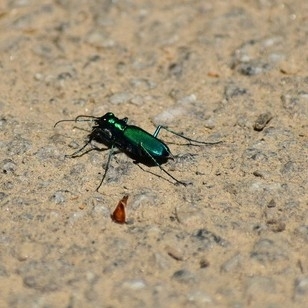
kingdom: Animalia
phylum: Arthropoda
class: Insecta
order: Coleoptera
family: Carabidae
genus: Cicindela
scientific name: Cicindela sexguttata
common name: Six-spotted tiger beetle
